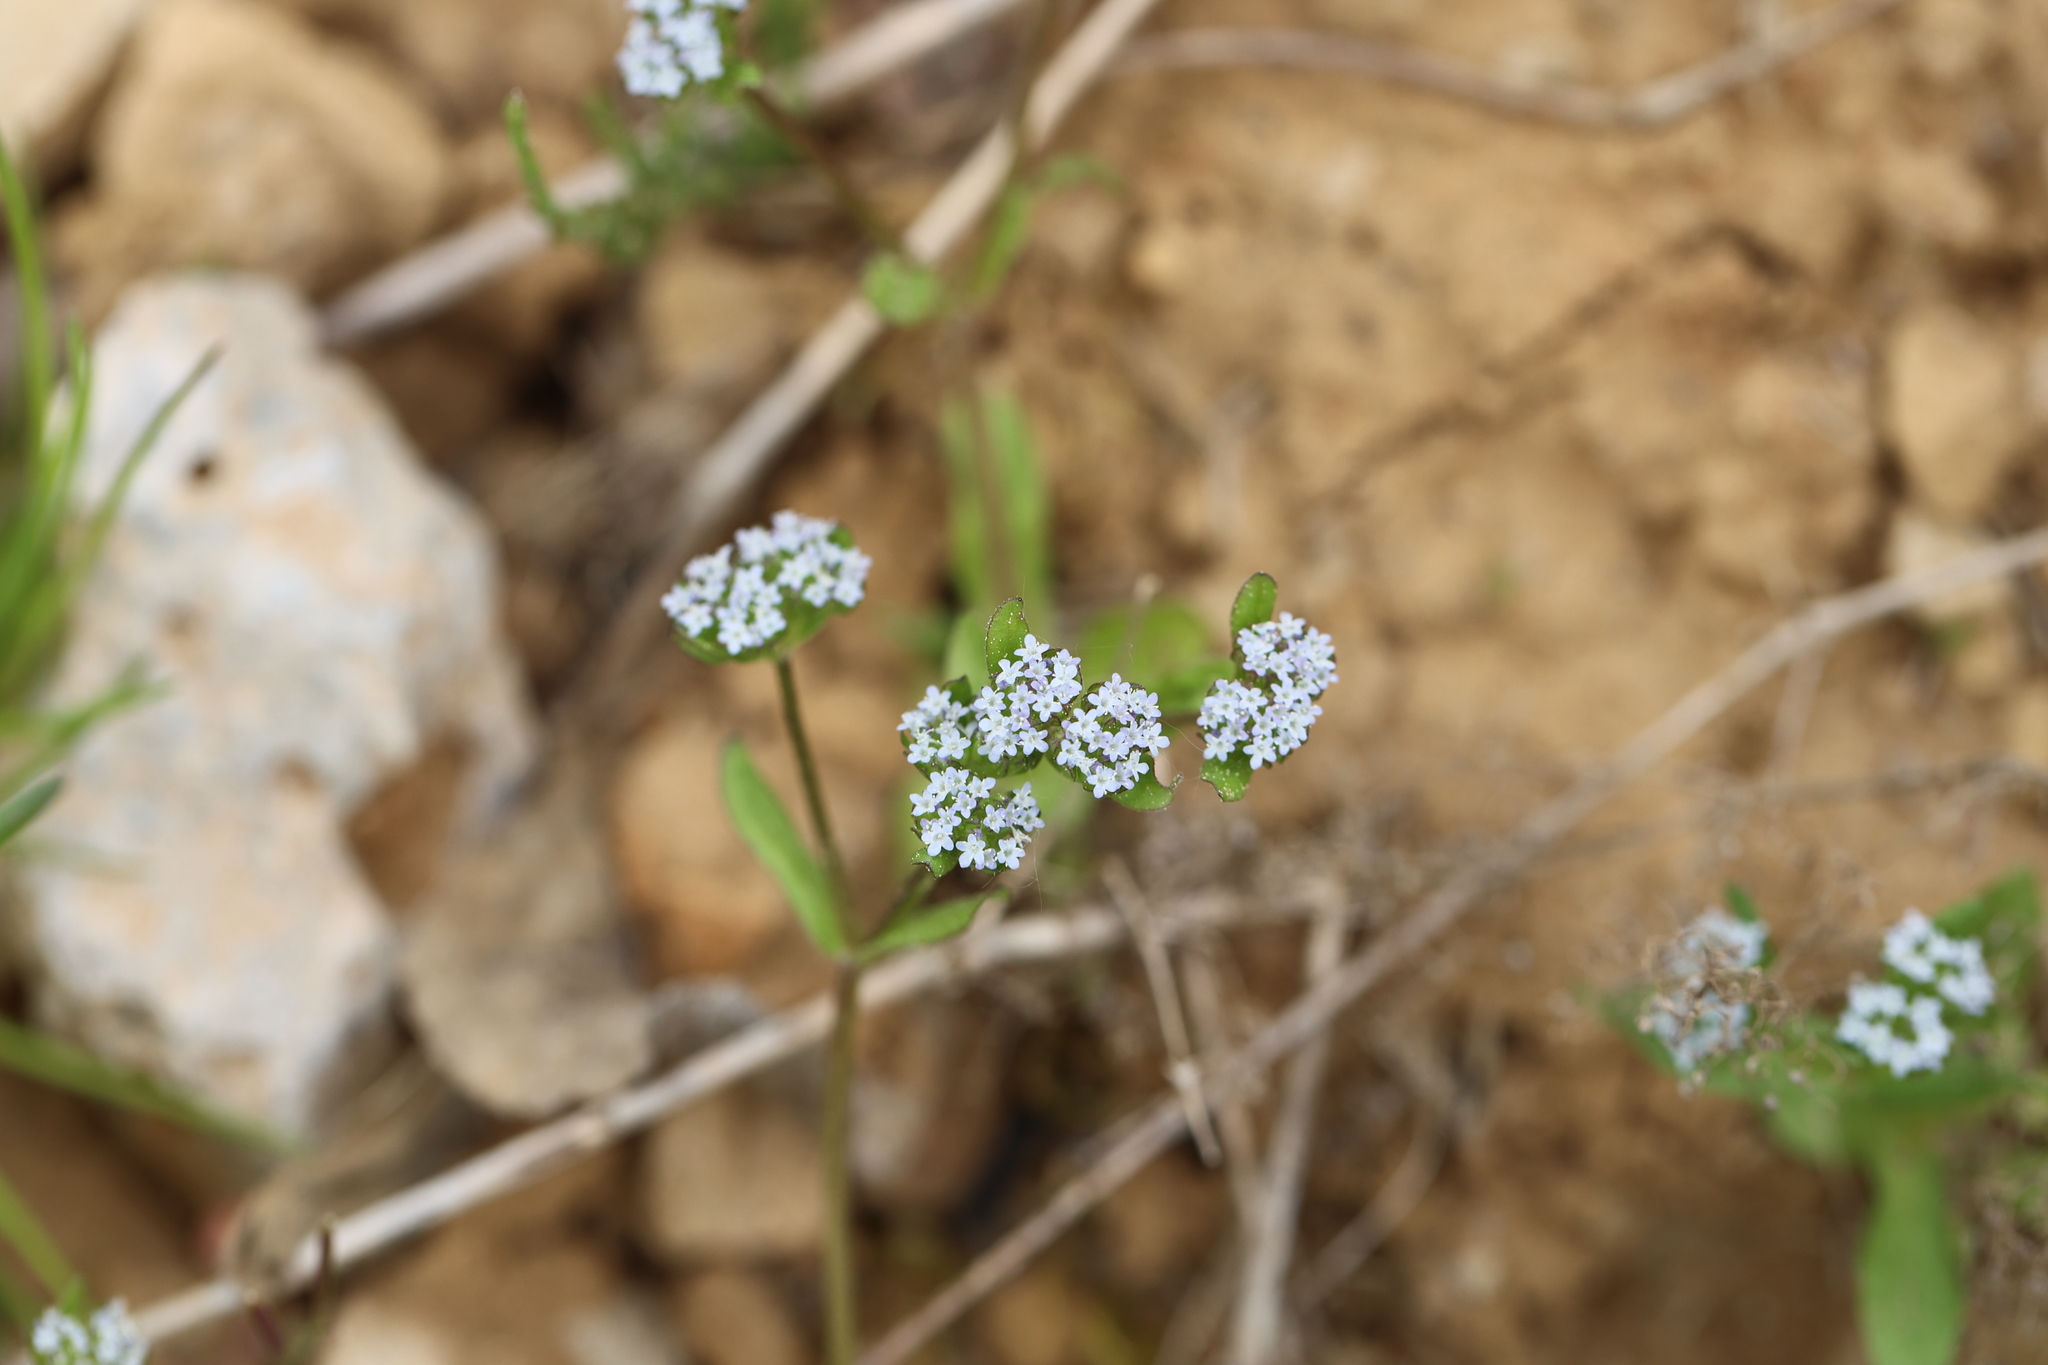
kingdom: Plantae
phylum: Tracheophyta
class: Magnoliopsida
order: Dipsacales
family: Caprifoliaceae
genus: Valerianella
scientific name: Valerianella locusta
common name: Common cornsalad
